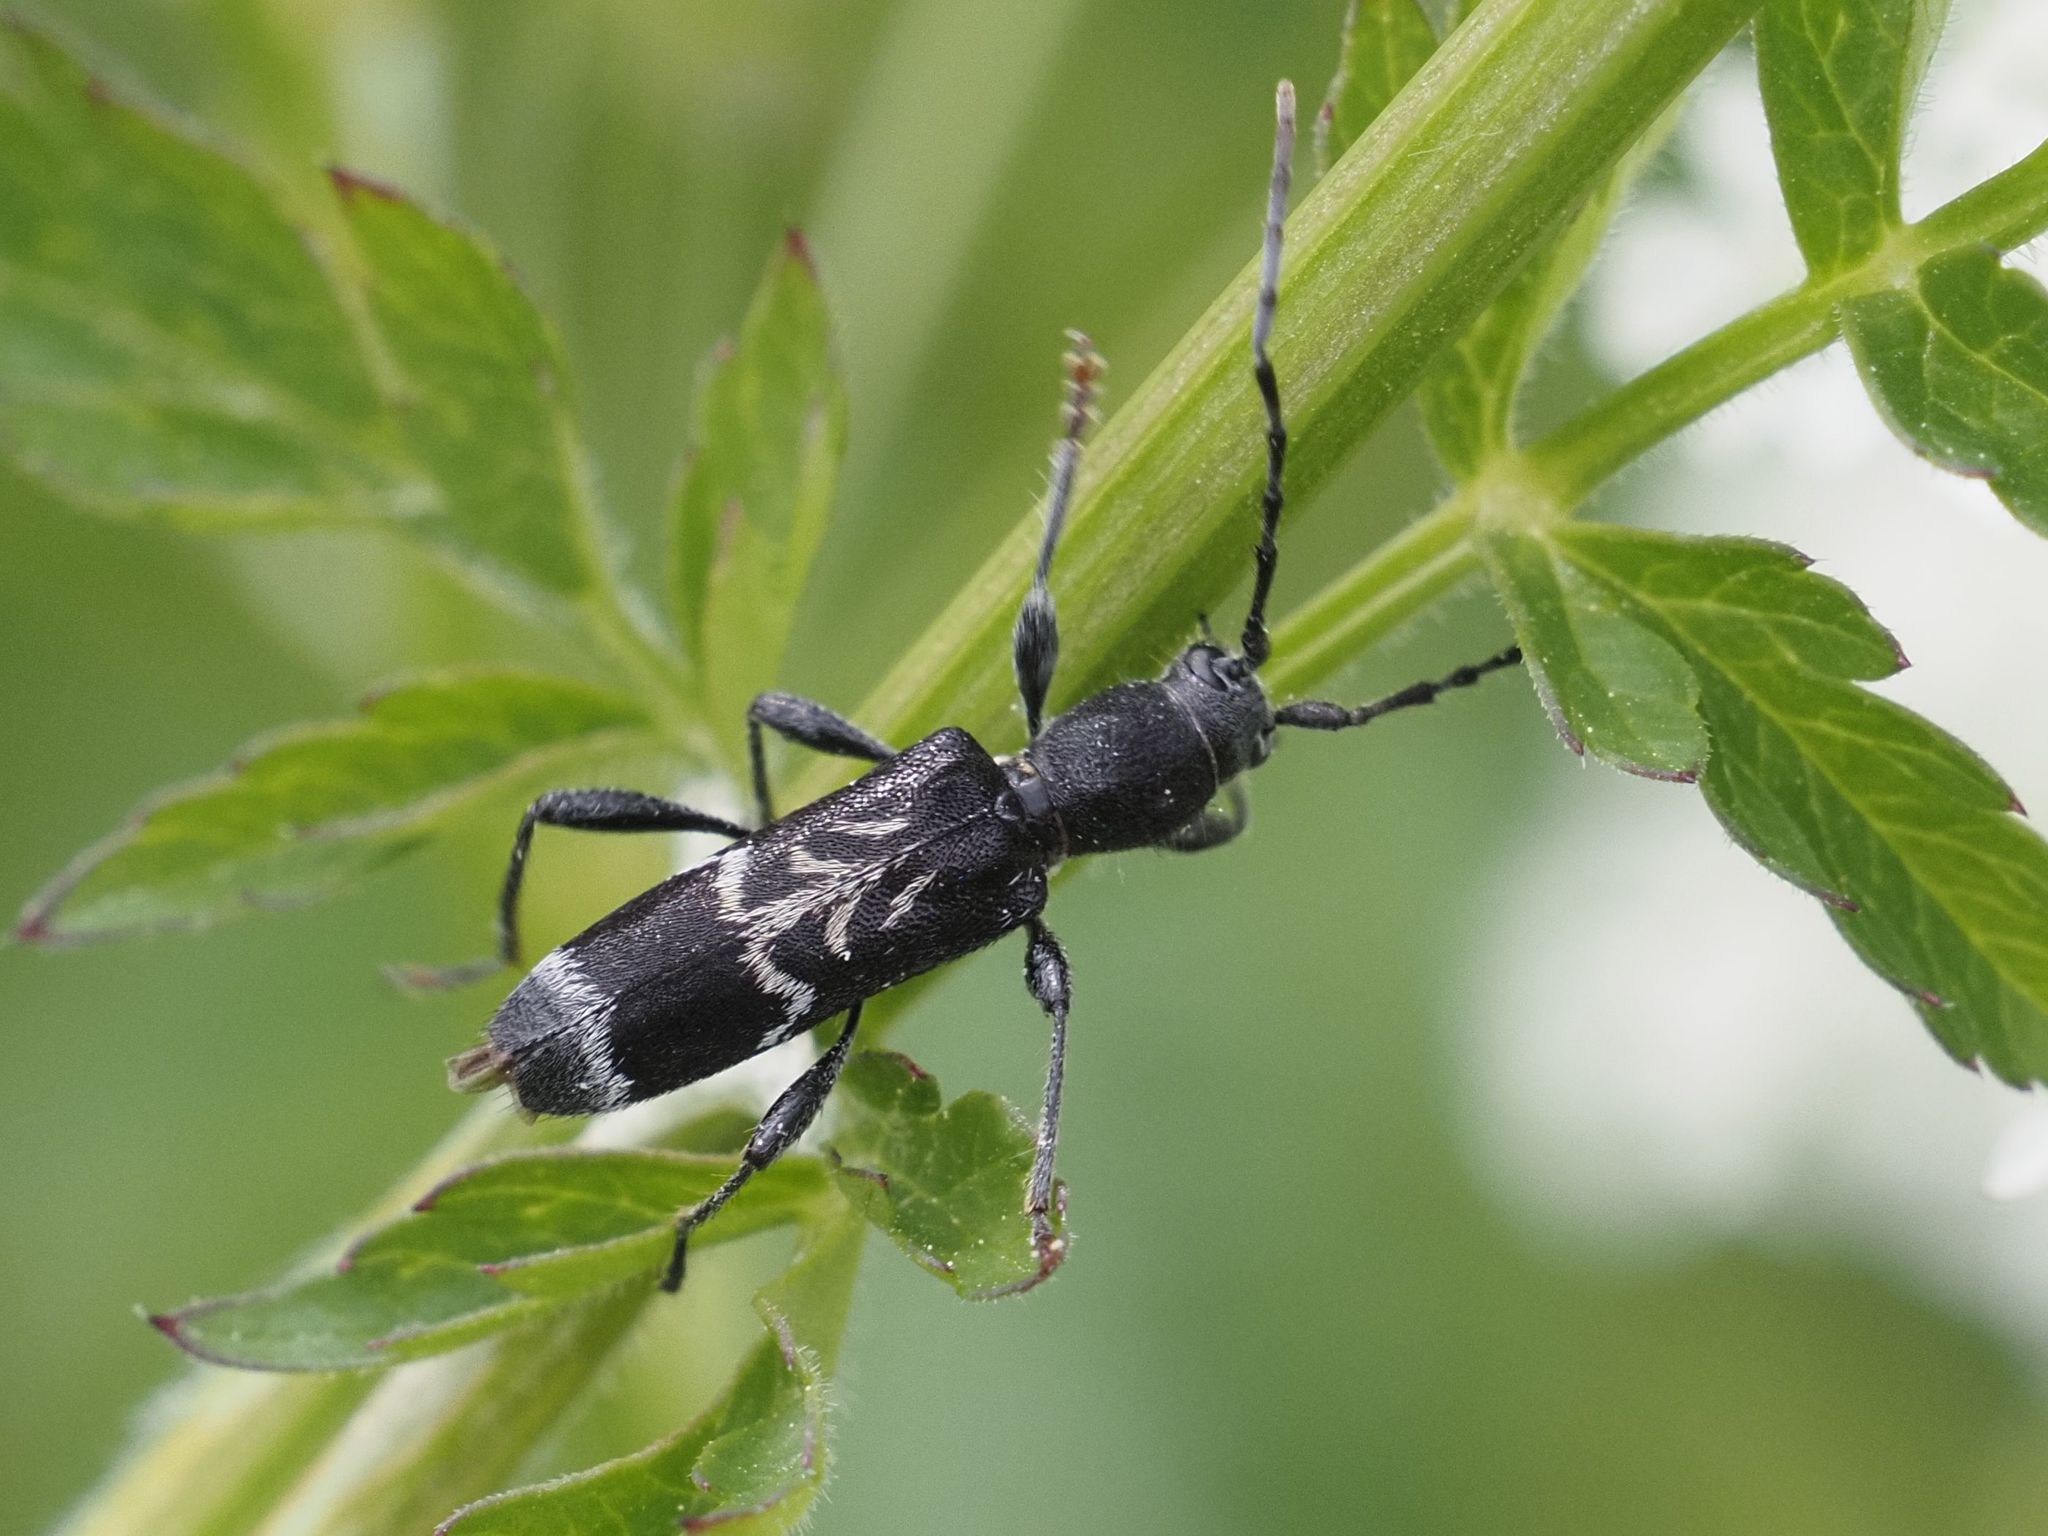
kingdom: Animalia
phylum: Arthropoda
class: Insecta
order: Coleoptera
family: Cerambycidae
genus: Anaglyptus
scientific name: Anaglyptus mysticus
